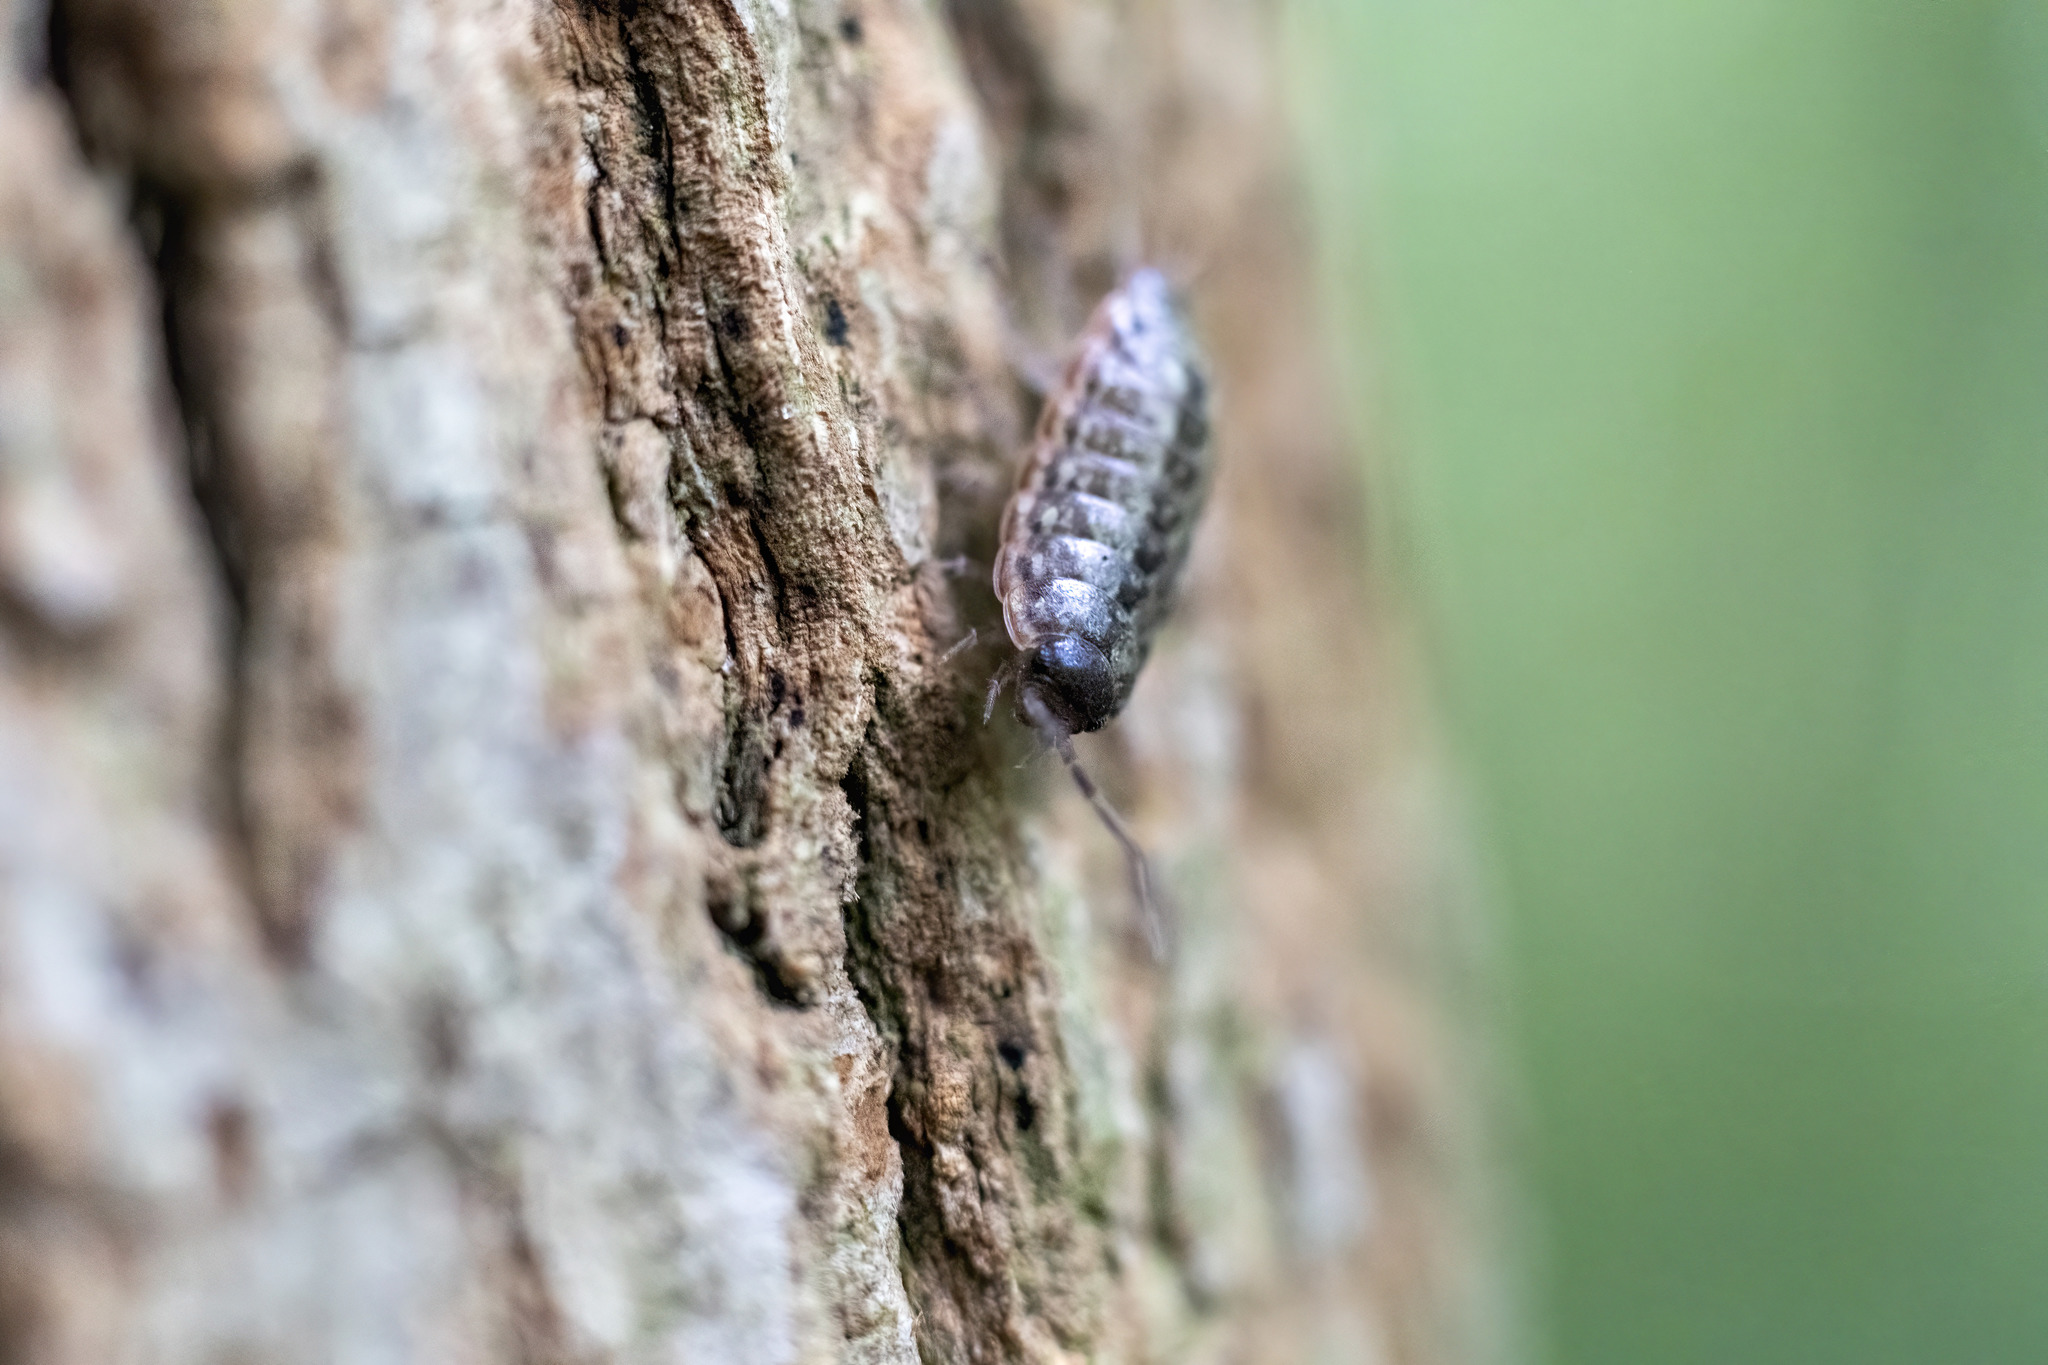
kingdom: Animalia
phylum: Arthropoda
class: Malacostraca
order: Isopoda
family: Philosciidae
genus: Philoscia
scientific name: Philoscia muscorum
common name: Common striped woodlouse
